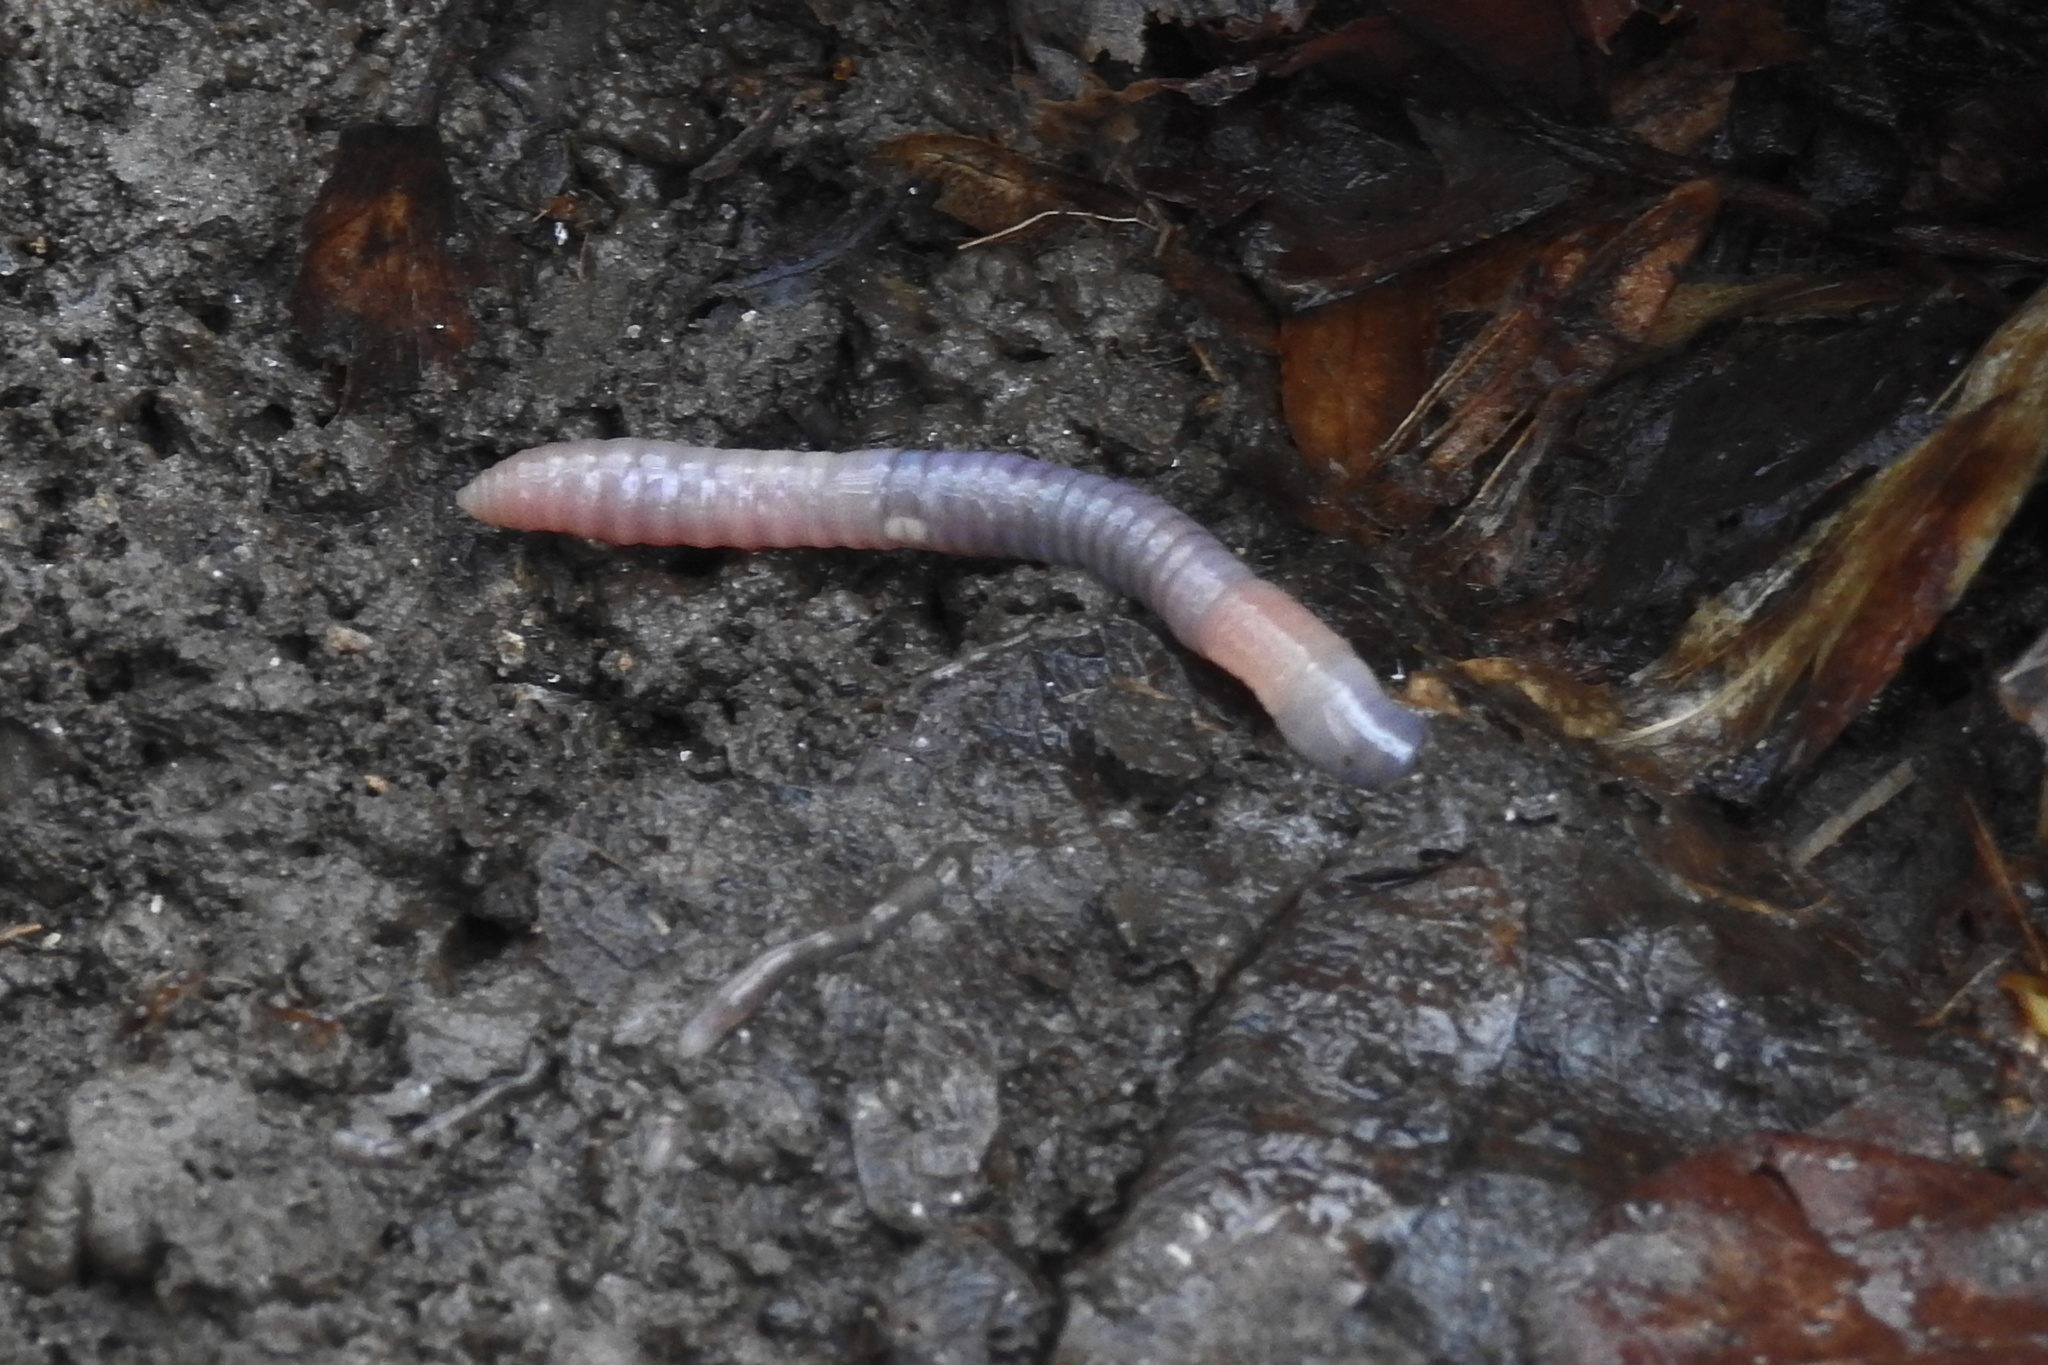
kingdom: Animalia
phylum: Annelida
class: Clitellata
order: Crassiclitellata
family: Lumbricidae
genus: Lumbricus
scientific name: Lumbricus terrestris
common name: Common earthworm
